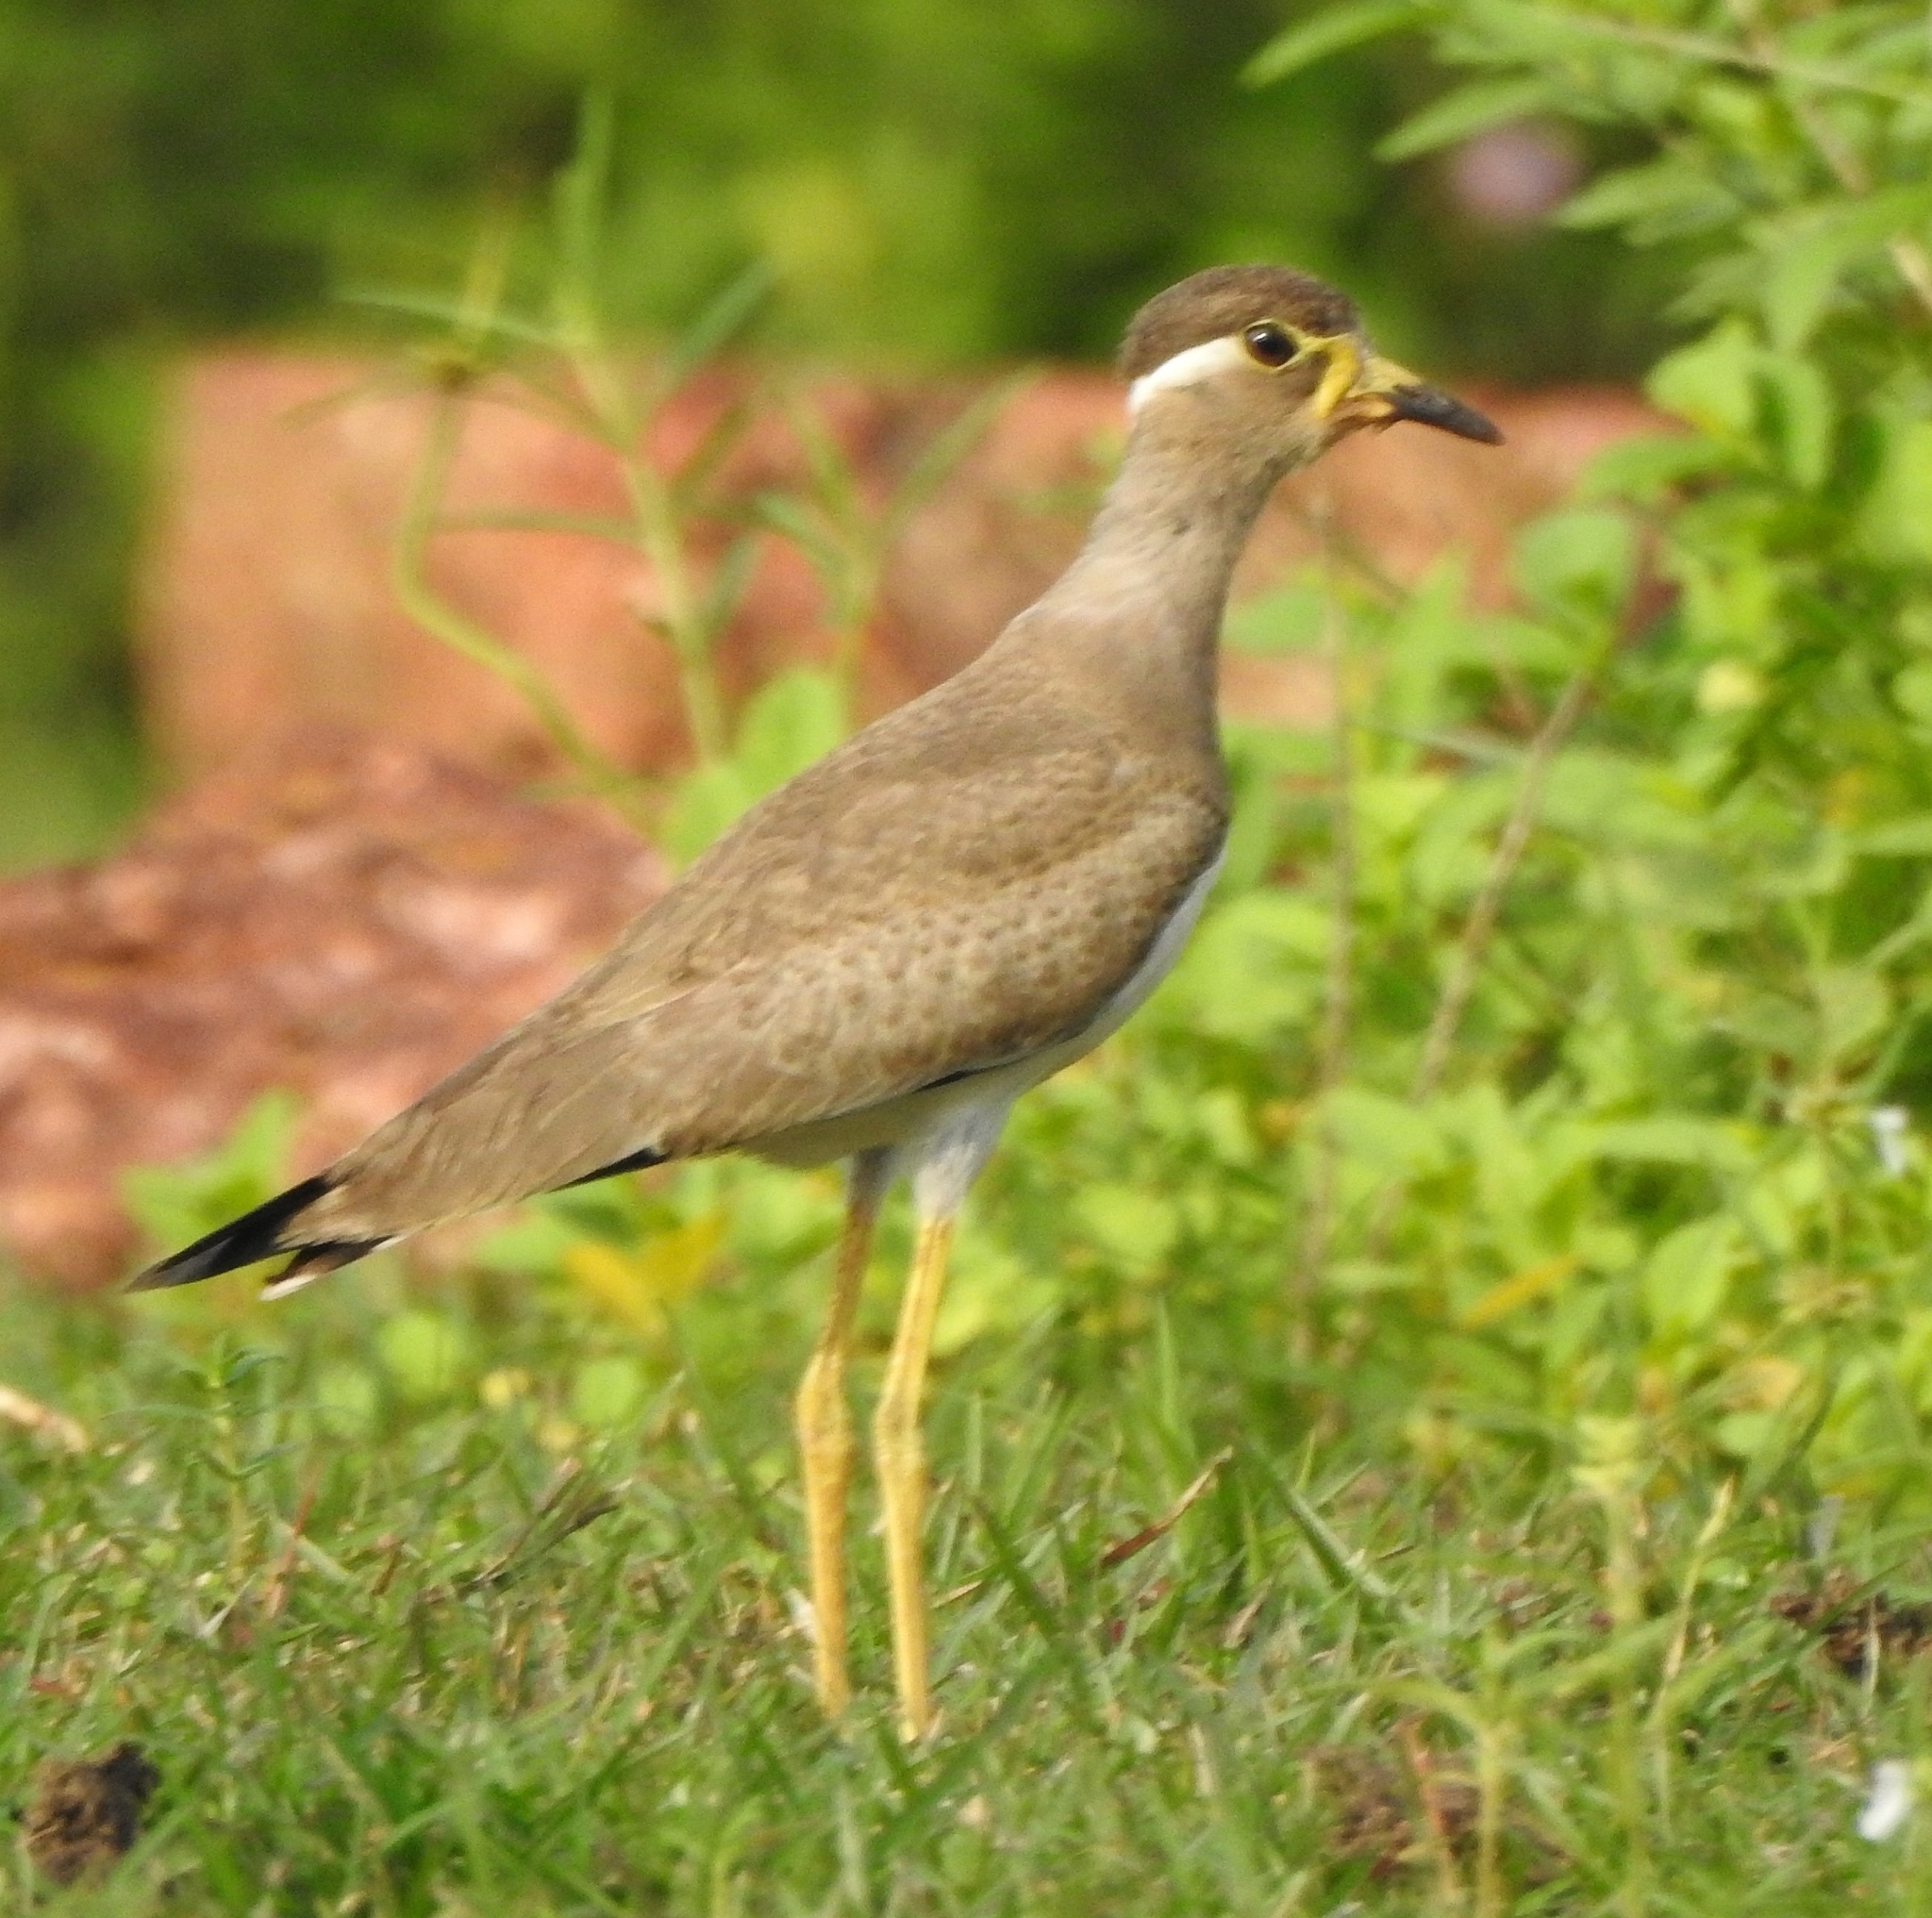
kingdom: Animalia
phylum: Chordata
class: Aves
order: Charadriiformes
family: Charadriidae
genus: Vanellus
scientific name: Vanellus malabaricus
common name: Yellow-wattled lapwing
